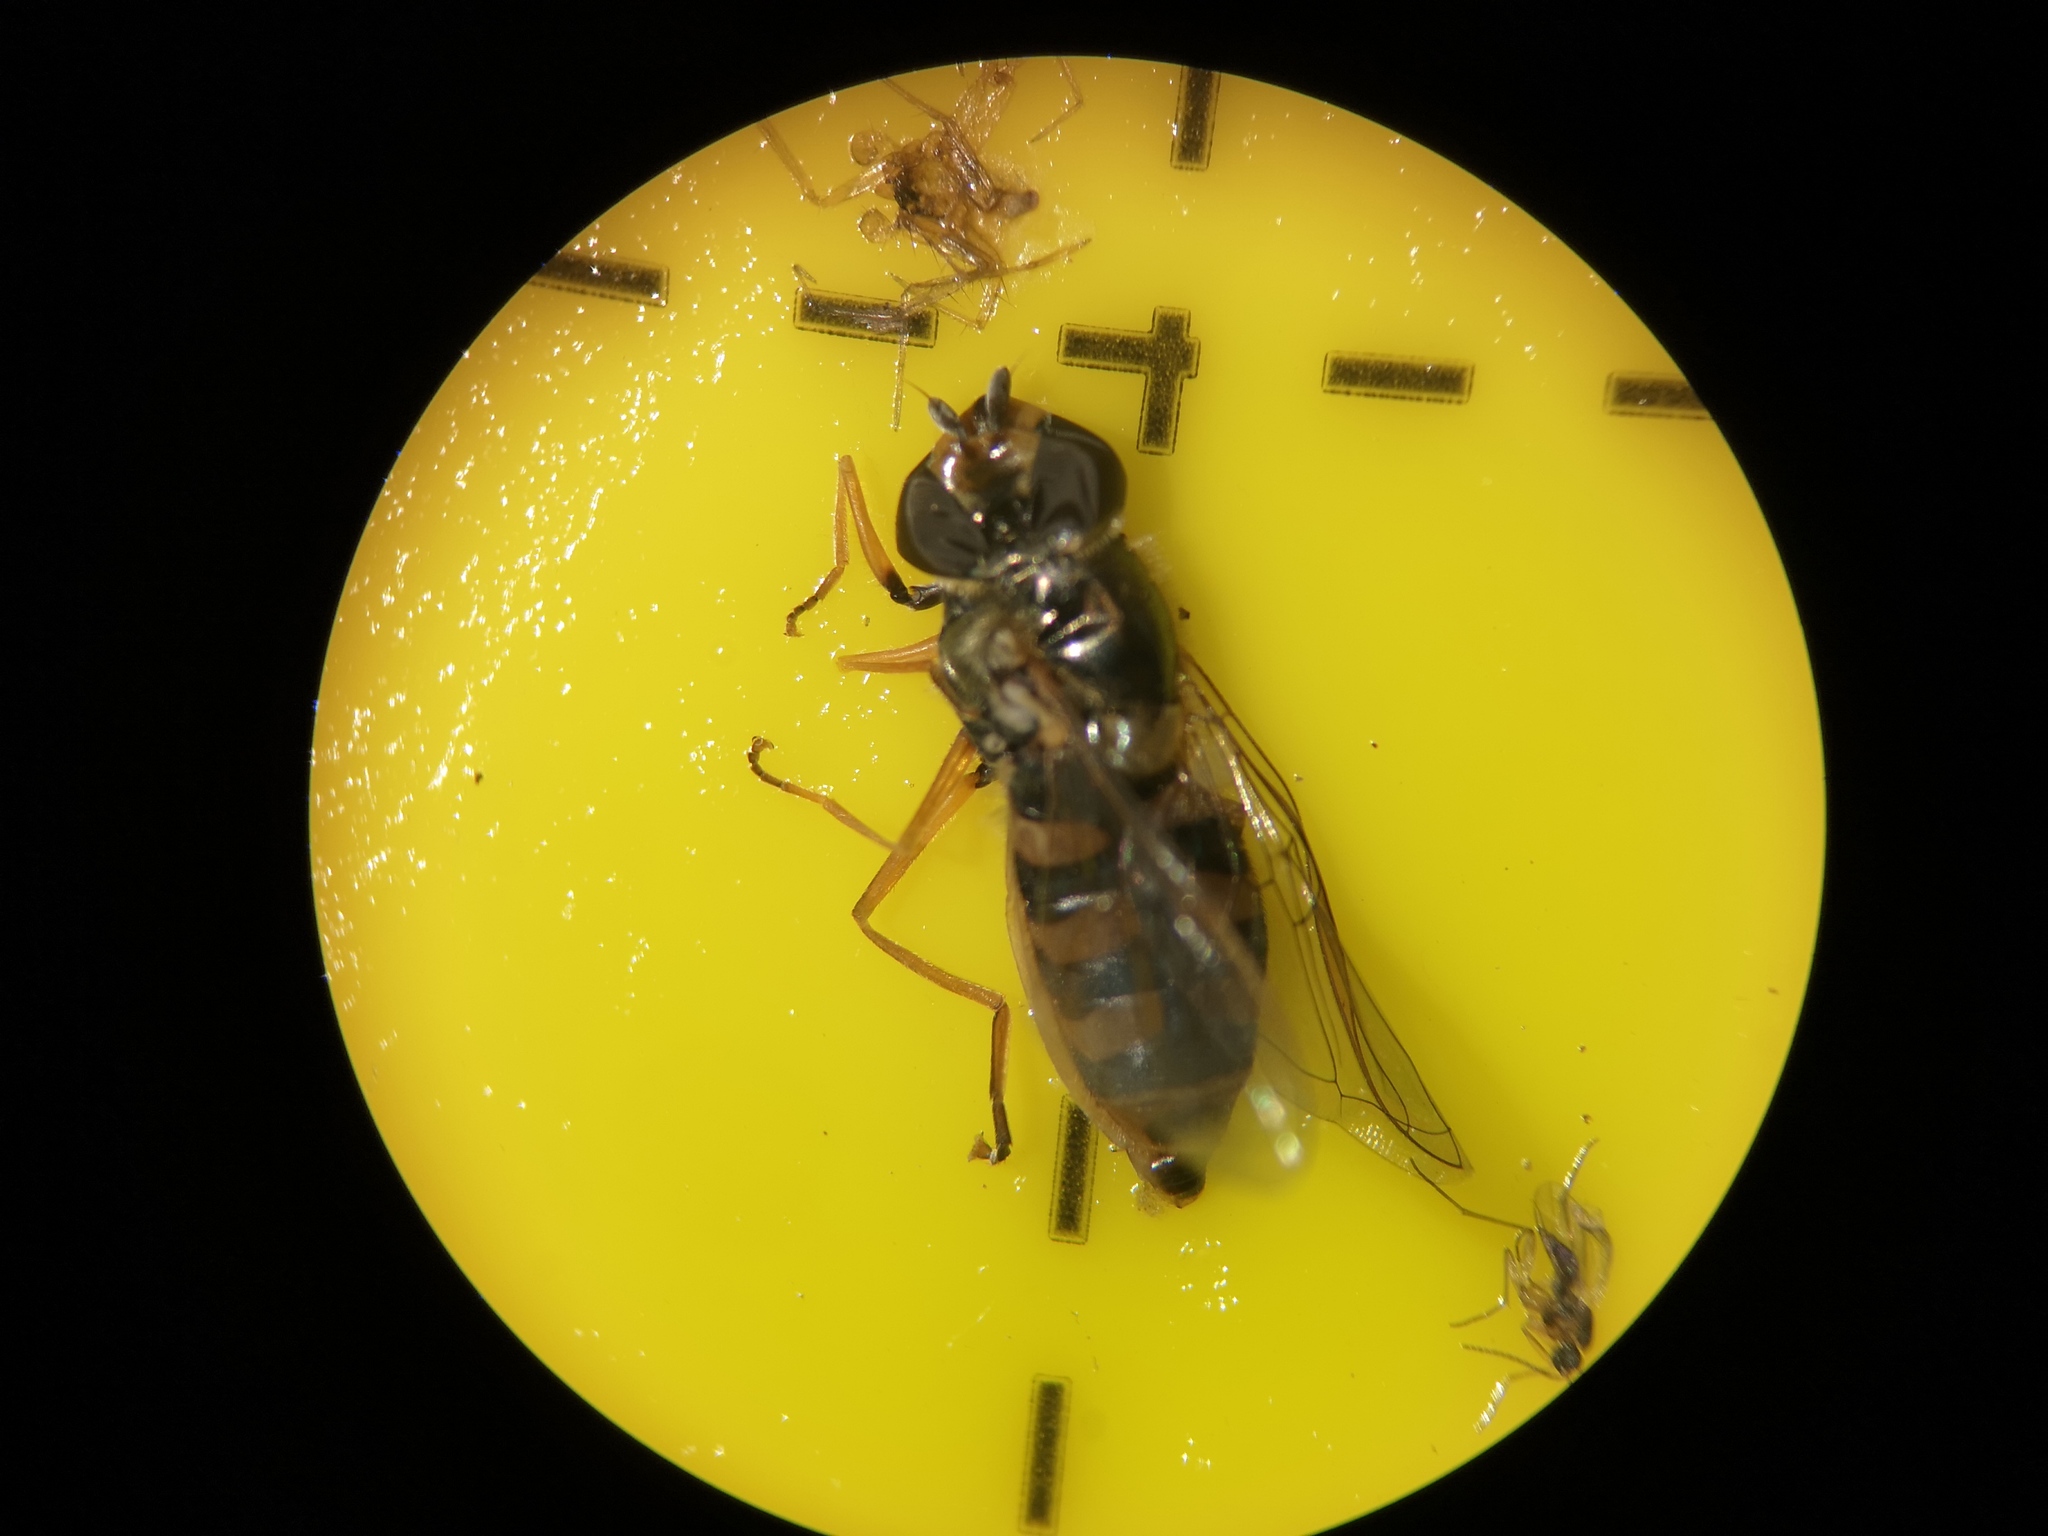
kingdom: Animalia
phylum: Arthropoda
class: Insecta
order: Diptera
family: Syrphidae
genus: Eupeodes
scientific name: Eupeodes corollae
